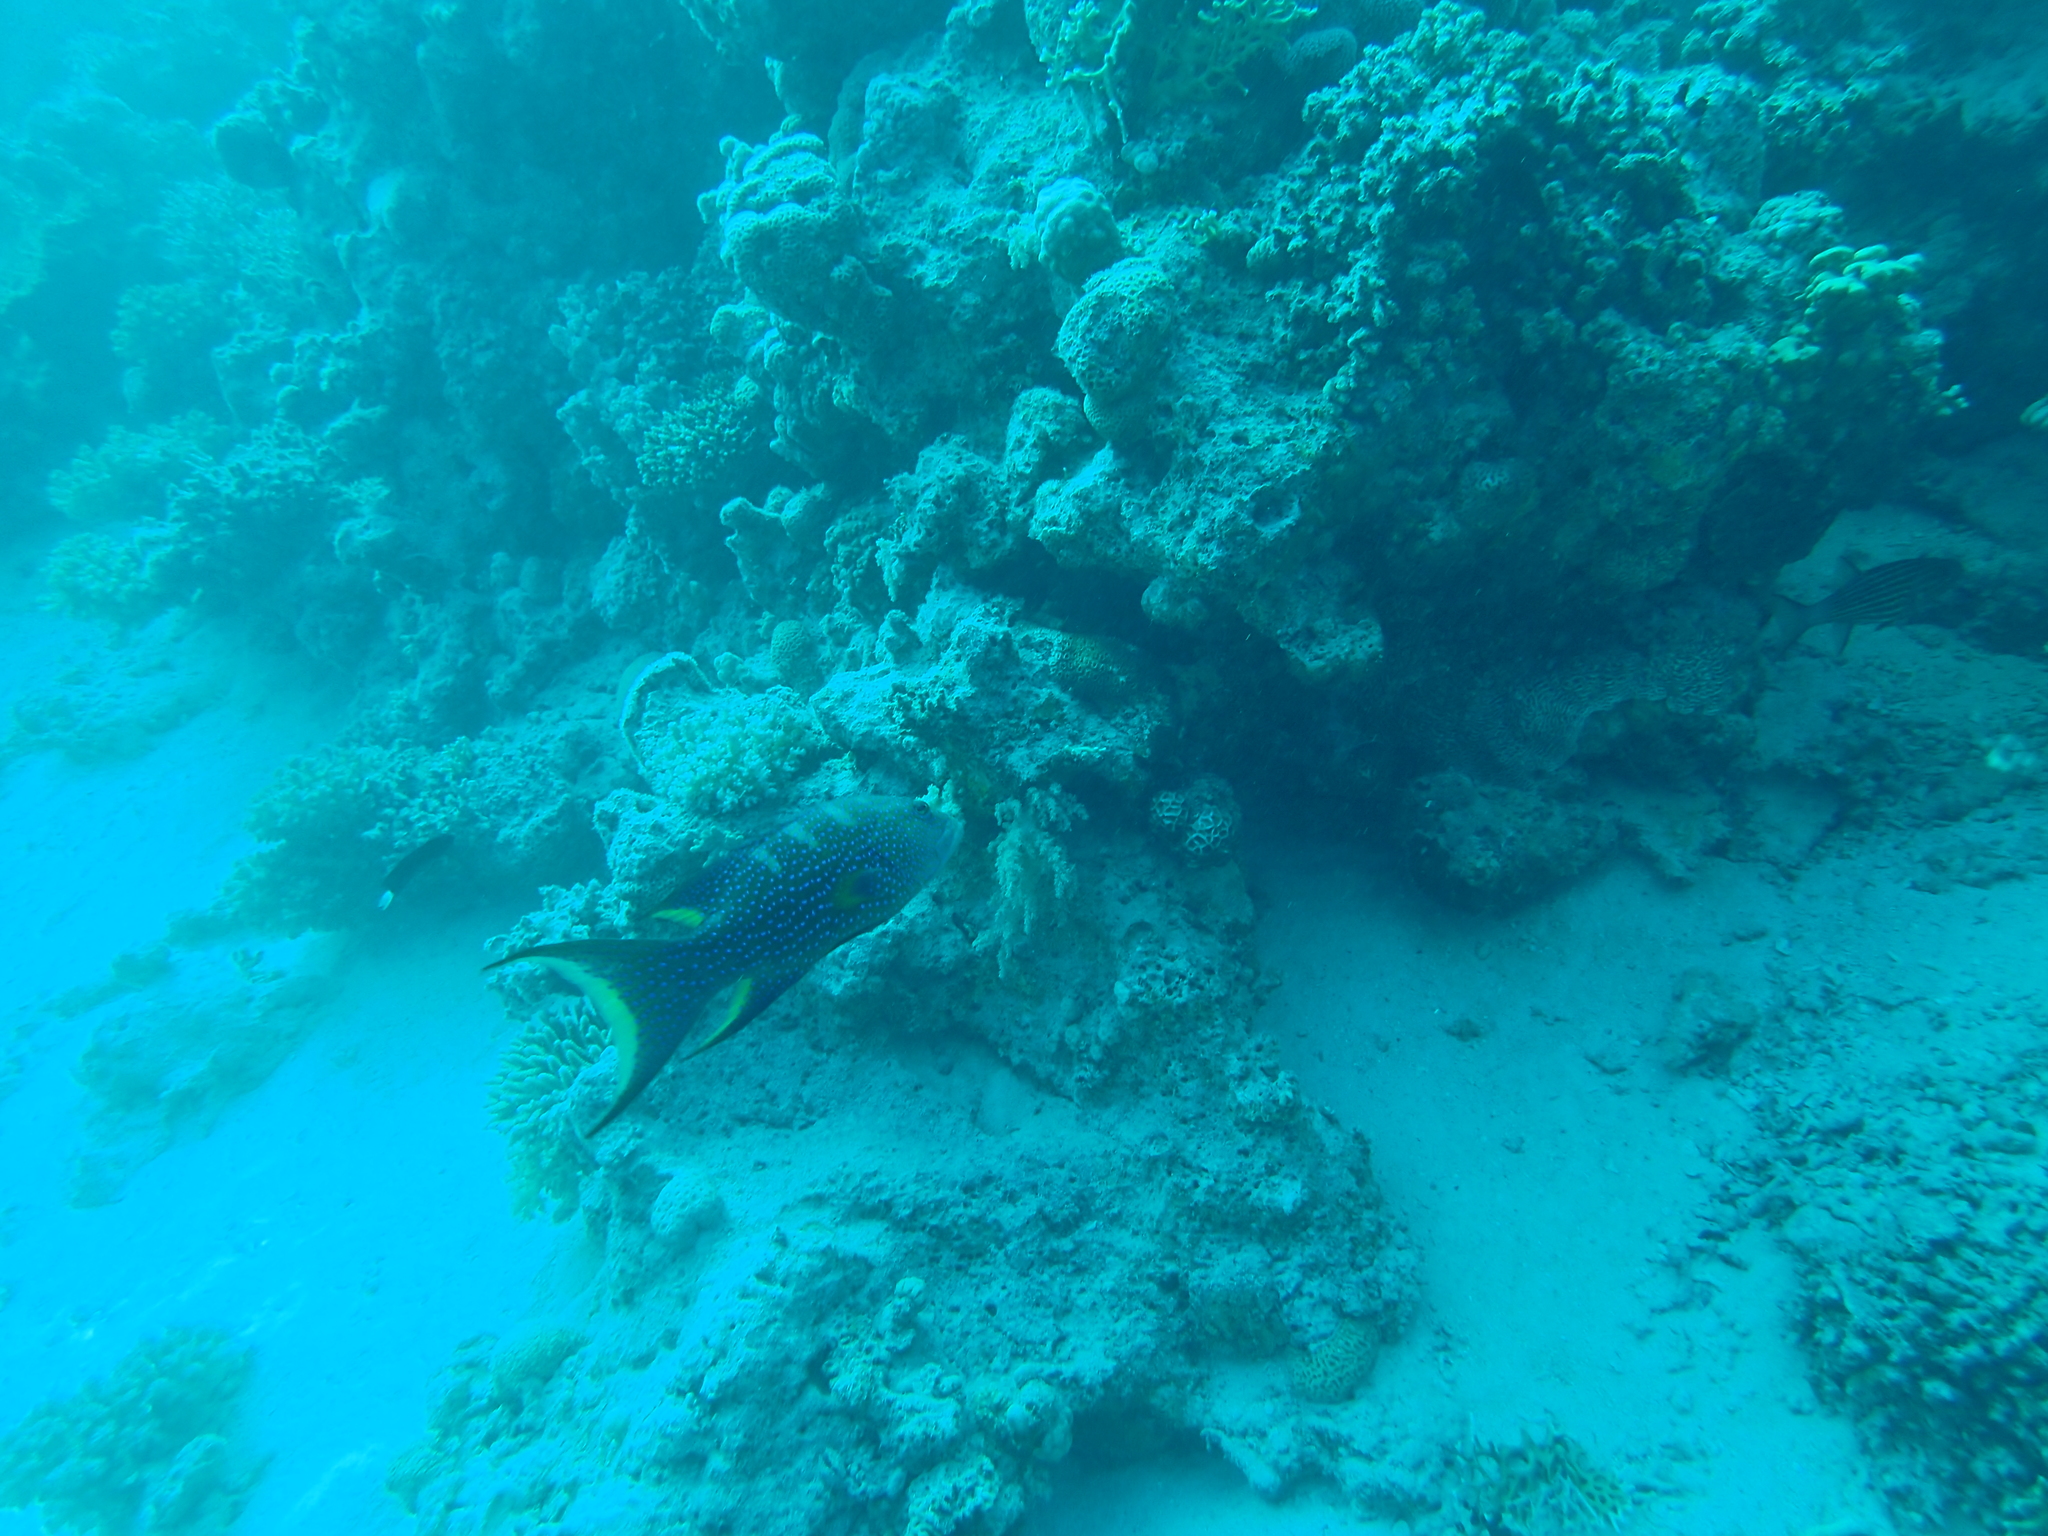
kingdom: Animalia
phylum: Chordata
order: Perciformes
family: Serranidae
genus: Variola
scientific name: Variola louti
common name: Yellow-edged lyretail
